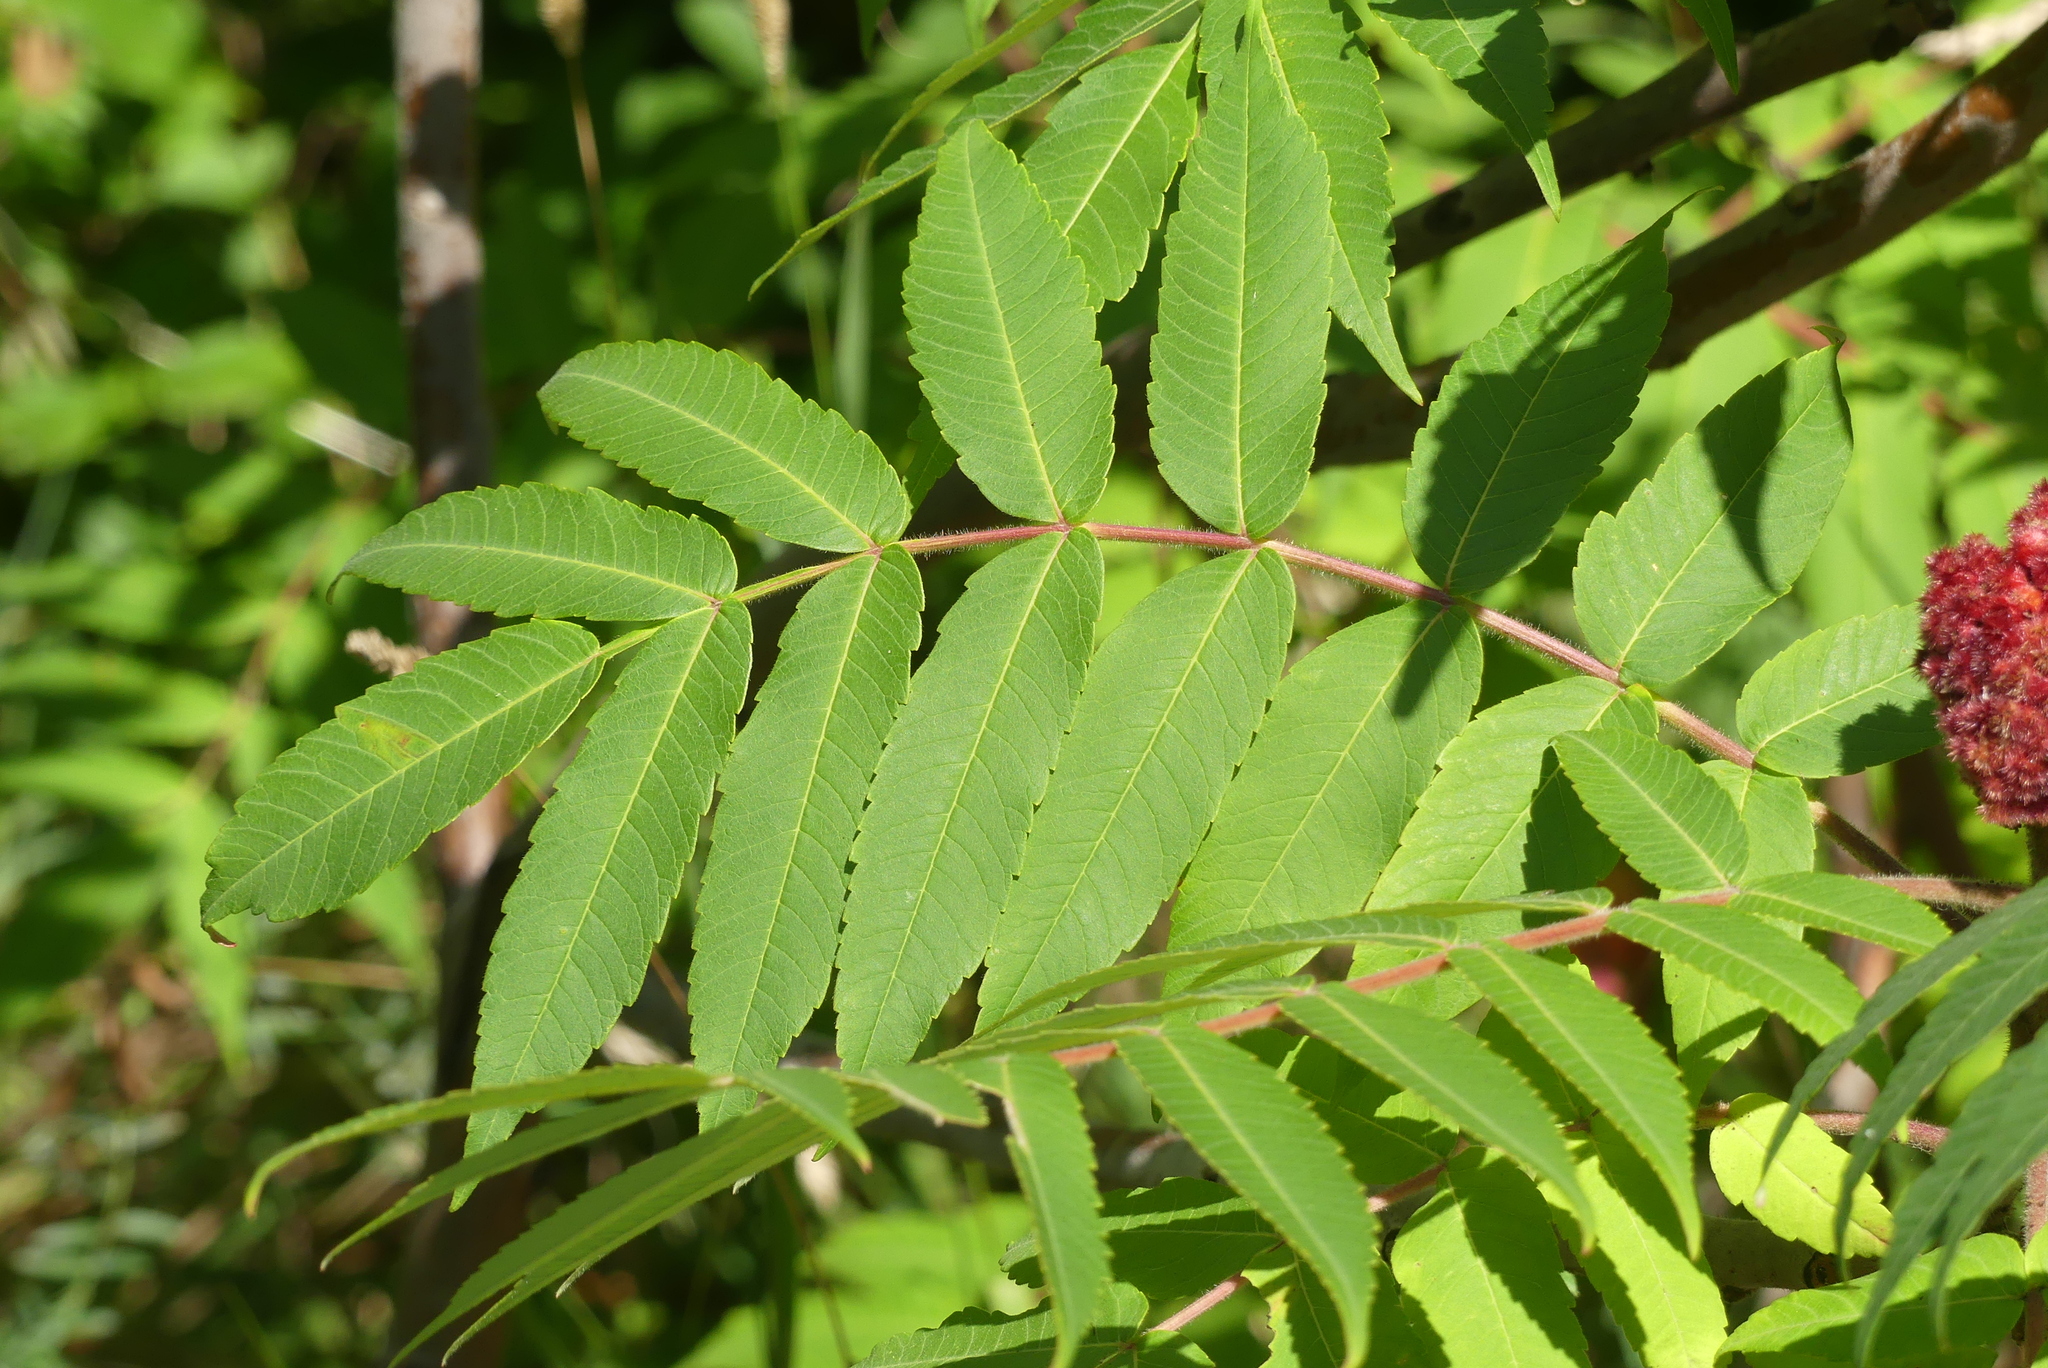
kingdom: Plantae
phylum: Tracheophyta
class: Magnoliopsida
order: Sapindales
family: Anacardiaceae
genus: Rhus
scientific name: Rhus typhina
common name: Staghorn sumac
